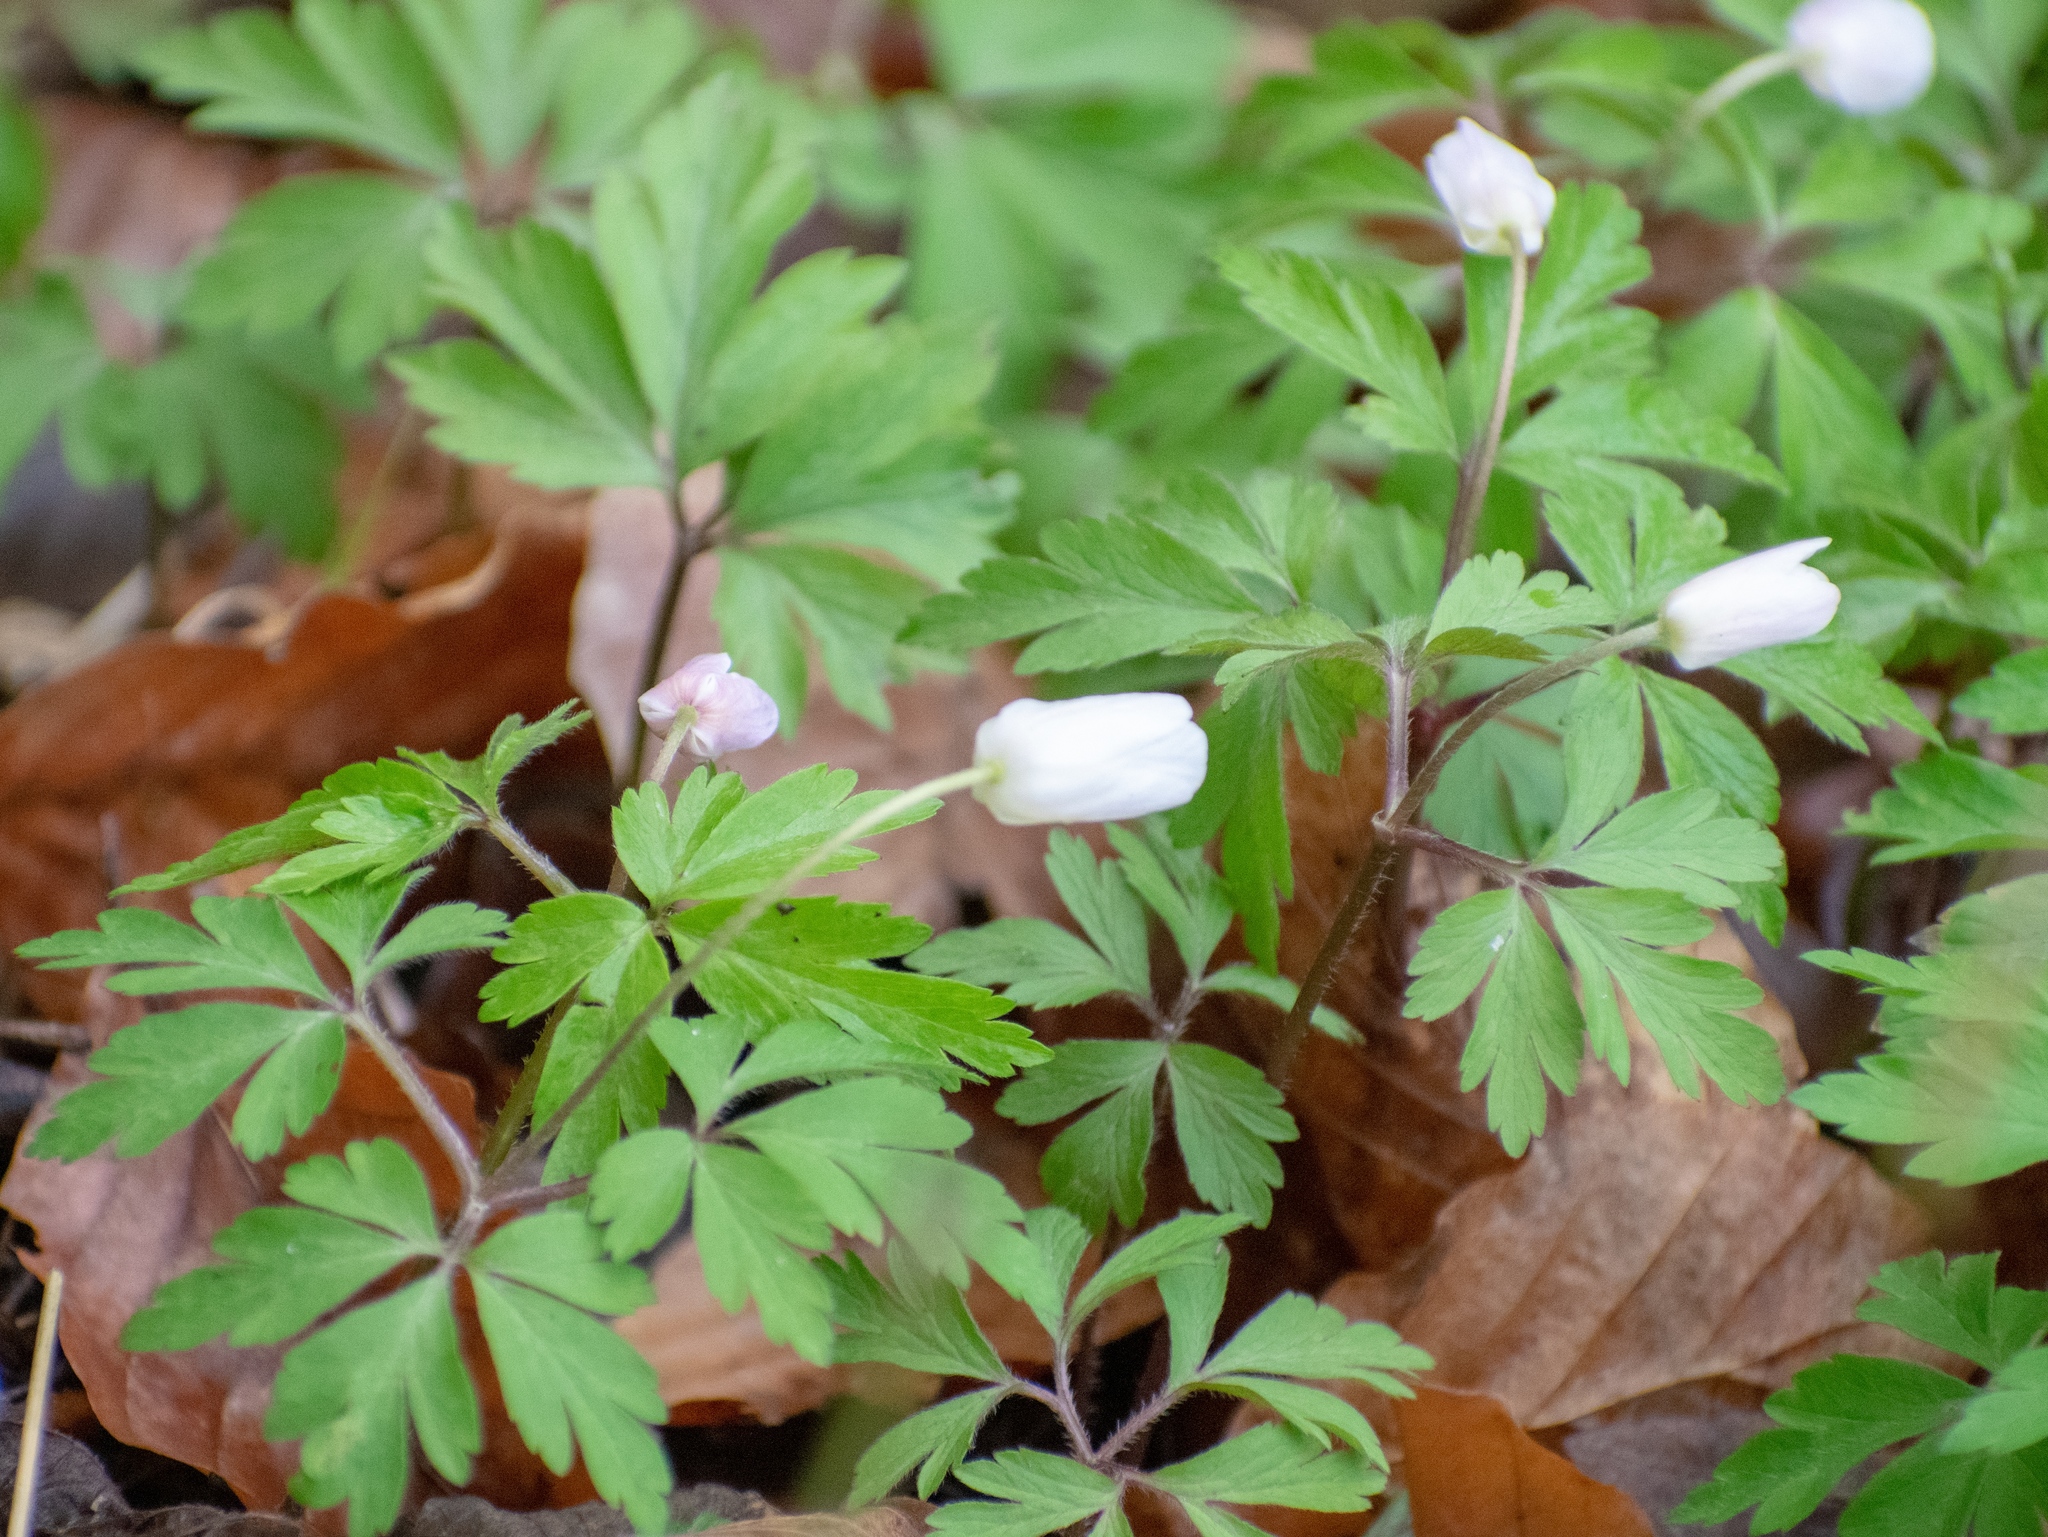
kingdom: Plantae
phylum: Tracheophyta
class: Magnoliopsida
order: Ranunculales
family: Ranunculaceae
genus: Anemone
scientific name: Anemone nemorosa
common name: Wood anemone
